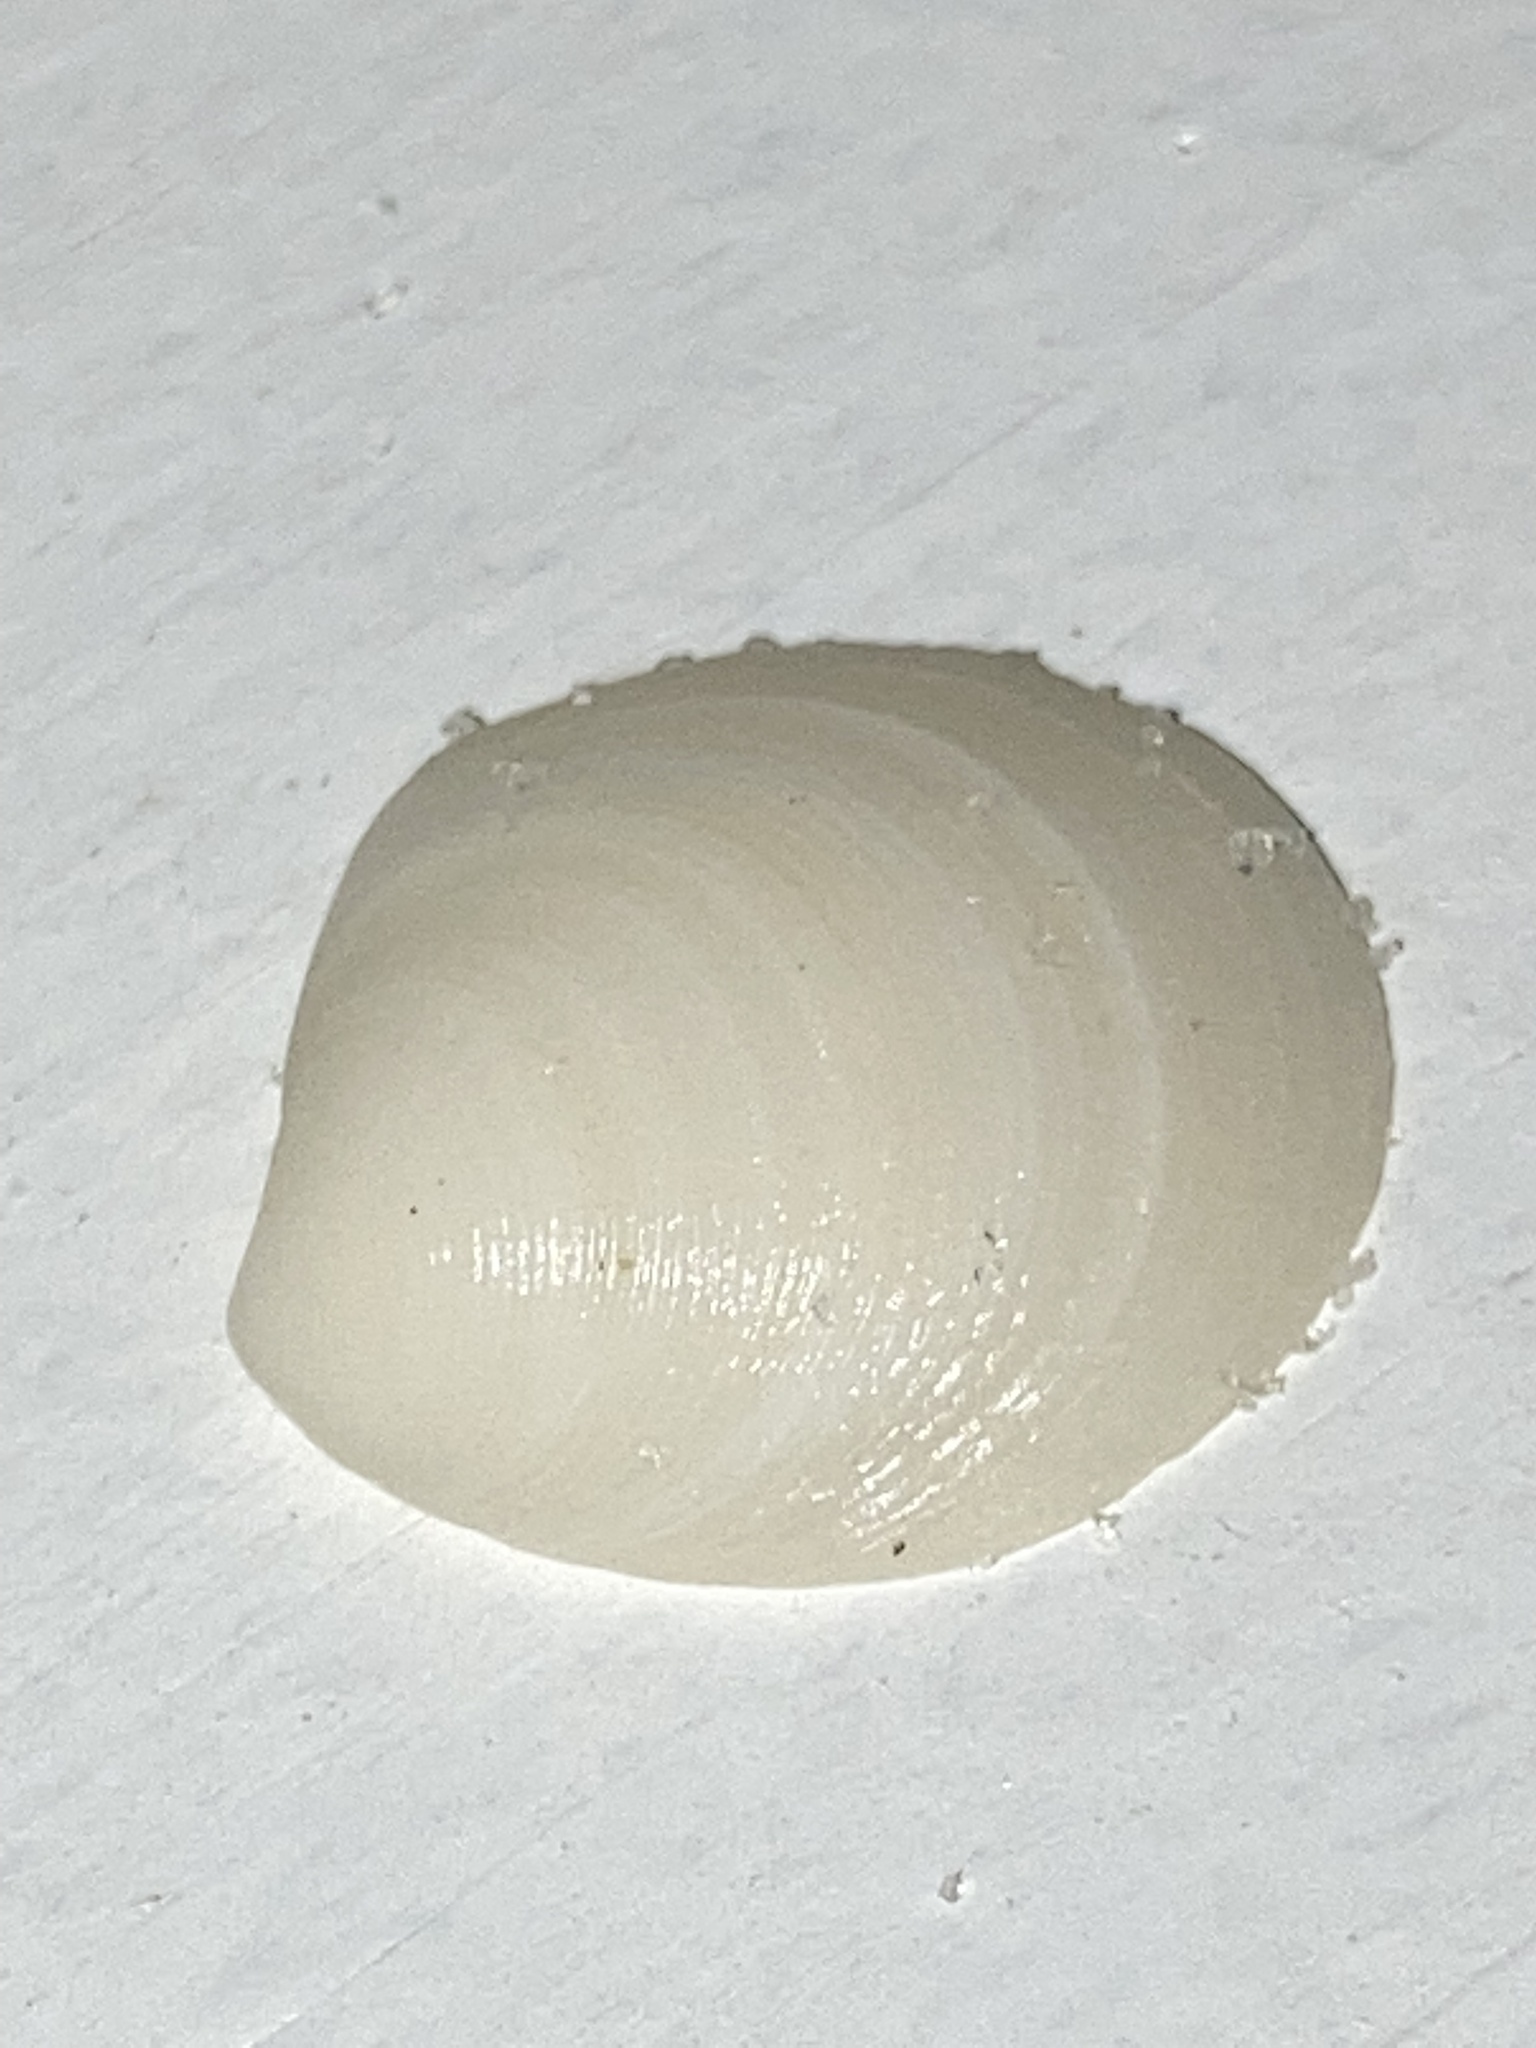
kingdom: Animalia
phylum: Mollusca
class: Bivalvia
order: Lucinida
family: Lucinidae
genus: Callucina
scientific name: Callucina keenae
